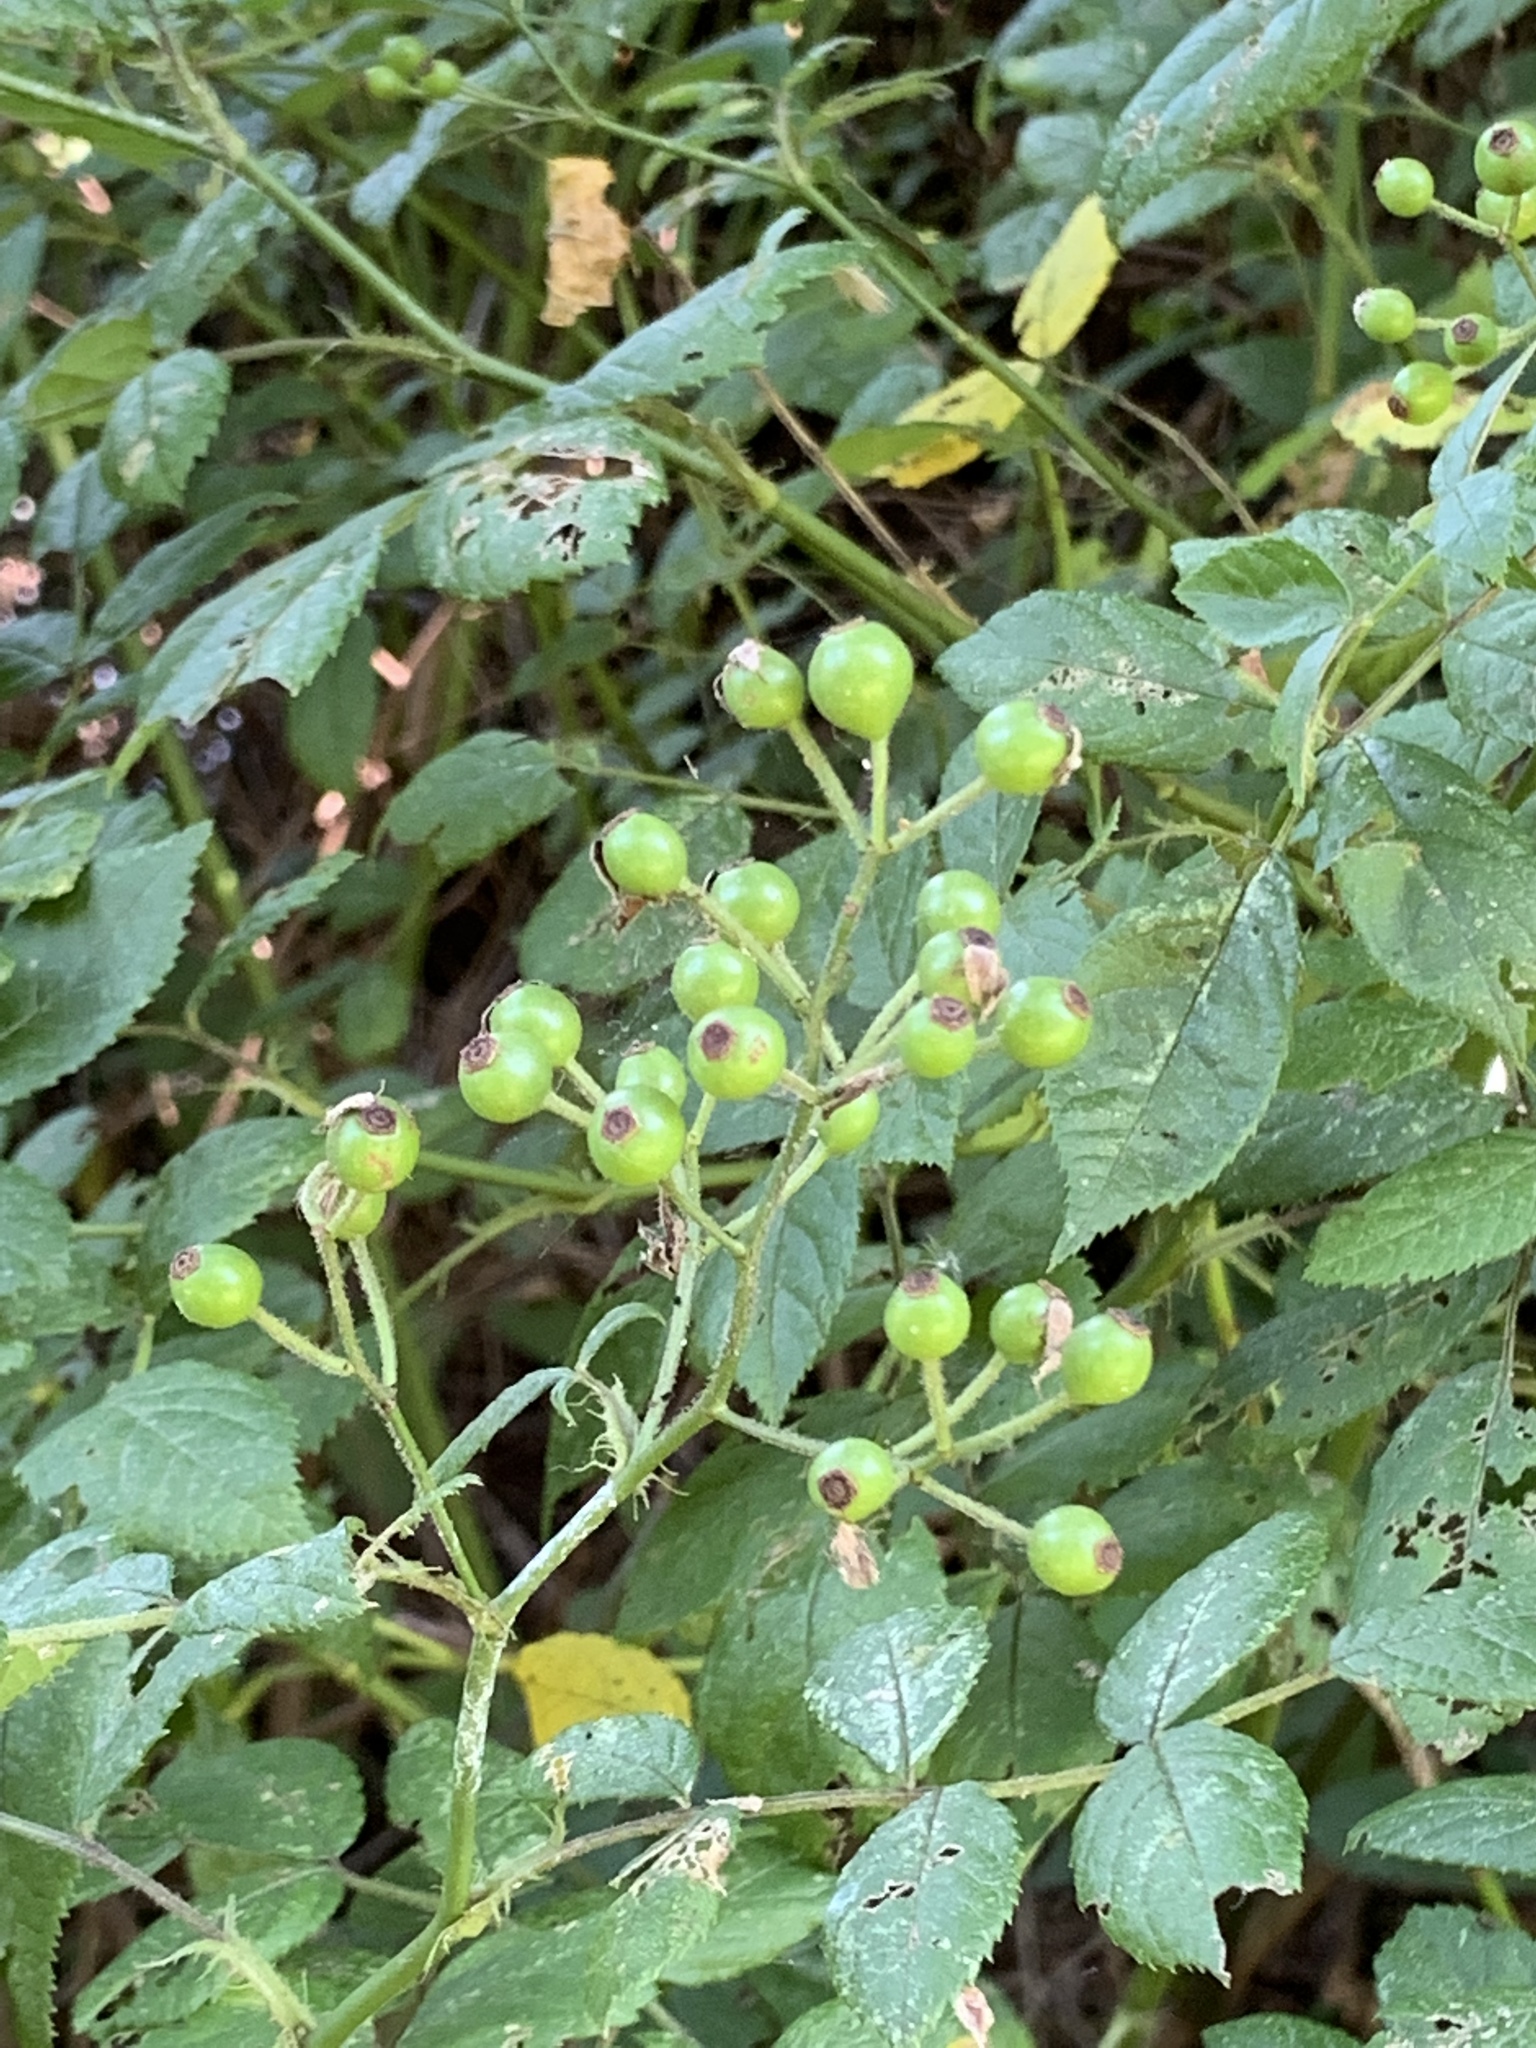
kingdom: Plantae
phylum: Tracheophyta
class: Magnoliopsida
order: Rosales
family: Rosaceae
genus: Rosa
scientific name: Rosa multiflora
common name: Multiflora rose
